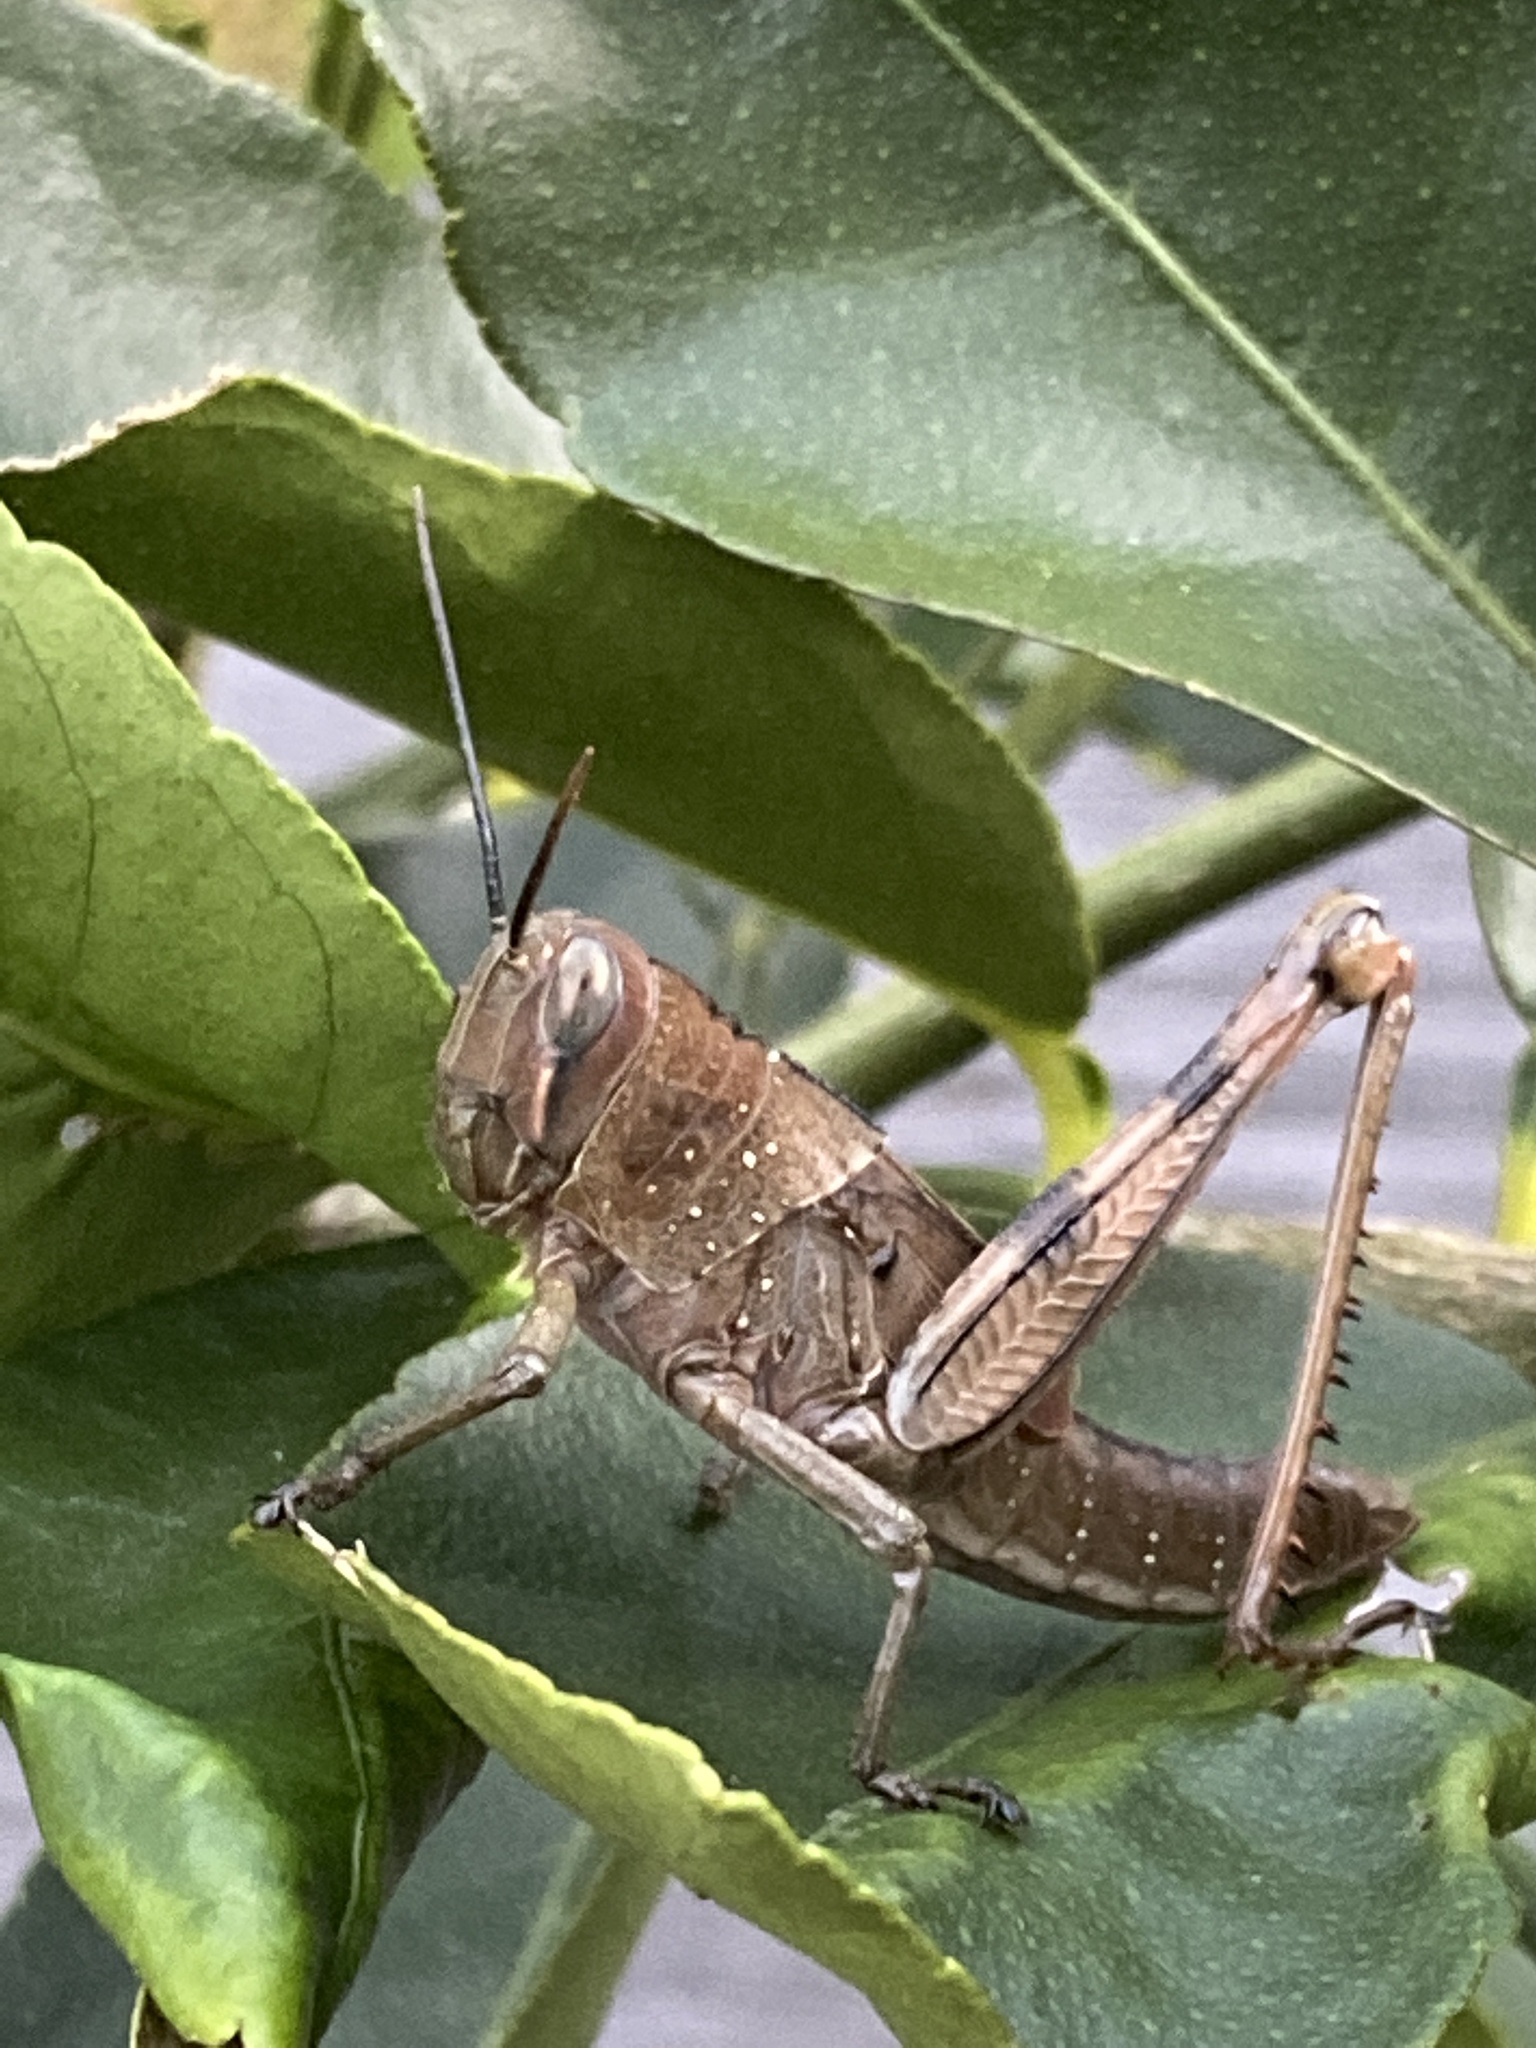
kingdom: Animalia
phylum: Arthropoda
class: Insecta
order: Orthoptera
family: Acrididae
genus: Valanga
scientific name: Valanga irregularis
